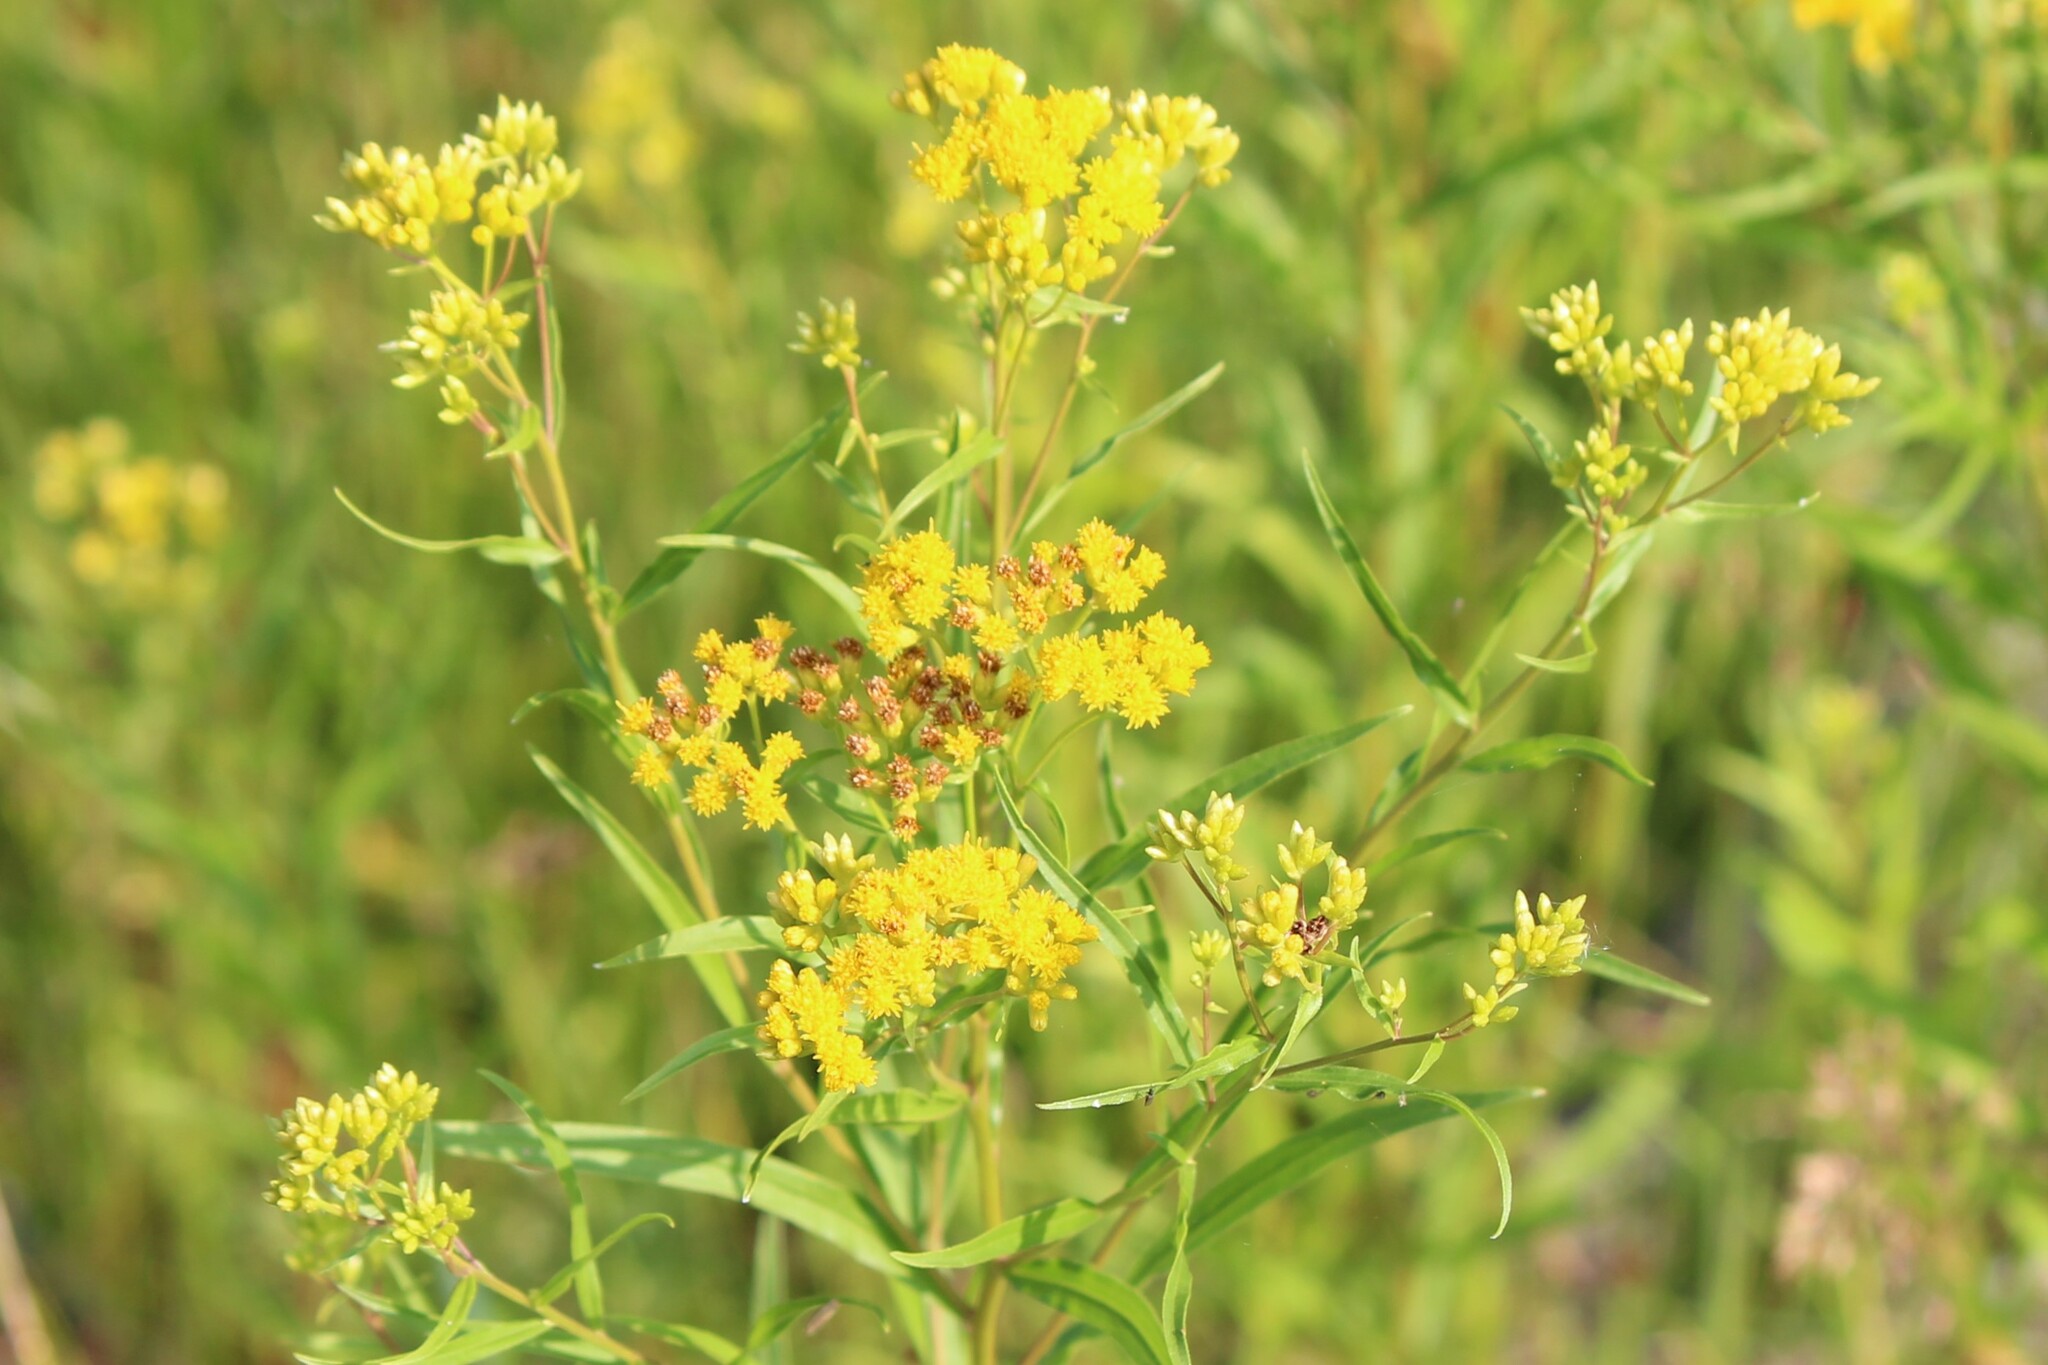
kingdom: Plantae
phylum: Tracheophyta
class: Magnoliopsida
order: Asterales
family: Asteraceae
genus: Euthamia
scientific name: Euthamia graminifolia
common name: Common goldentop
